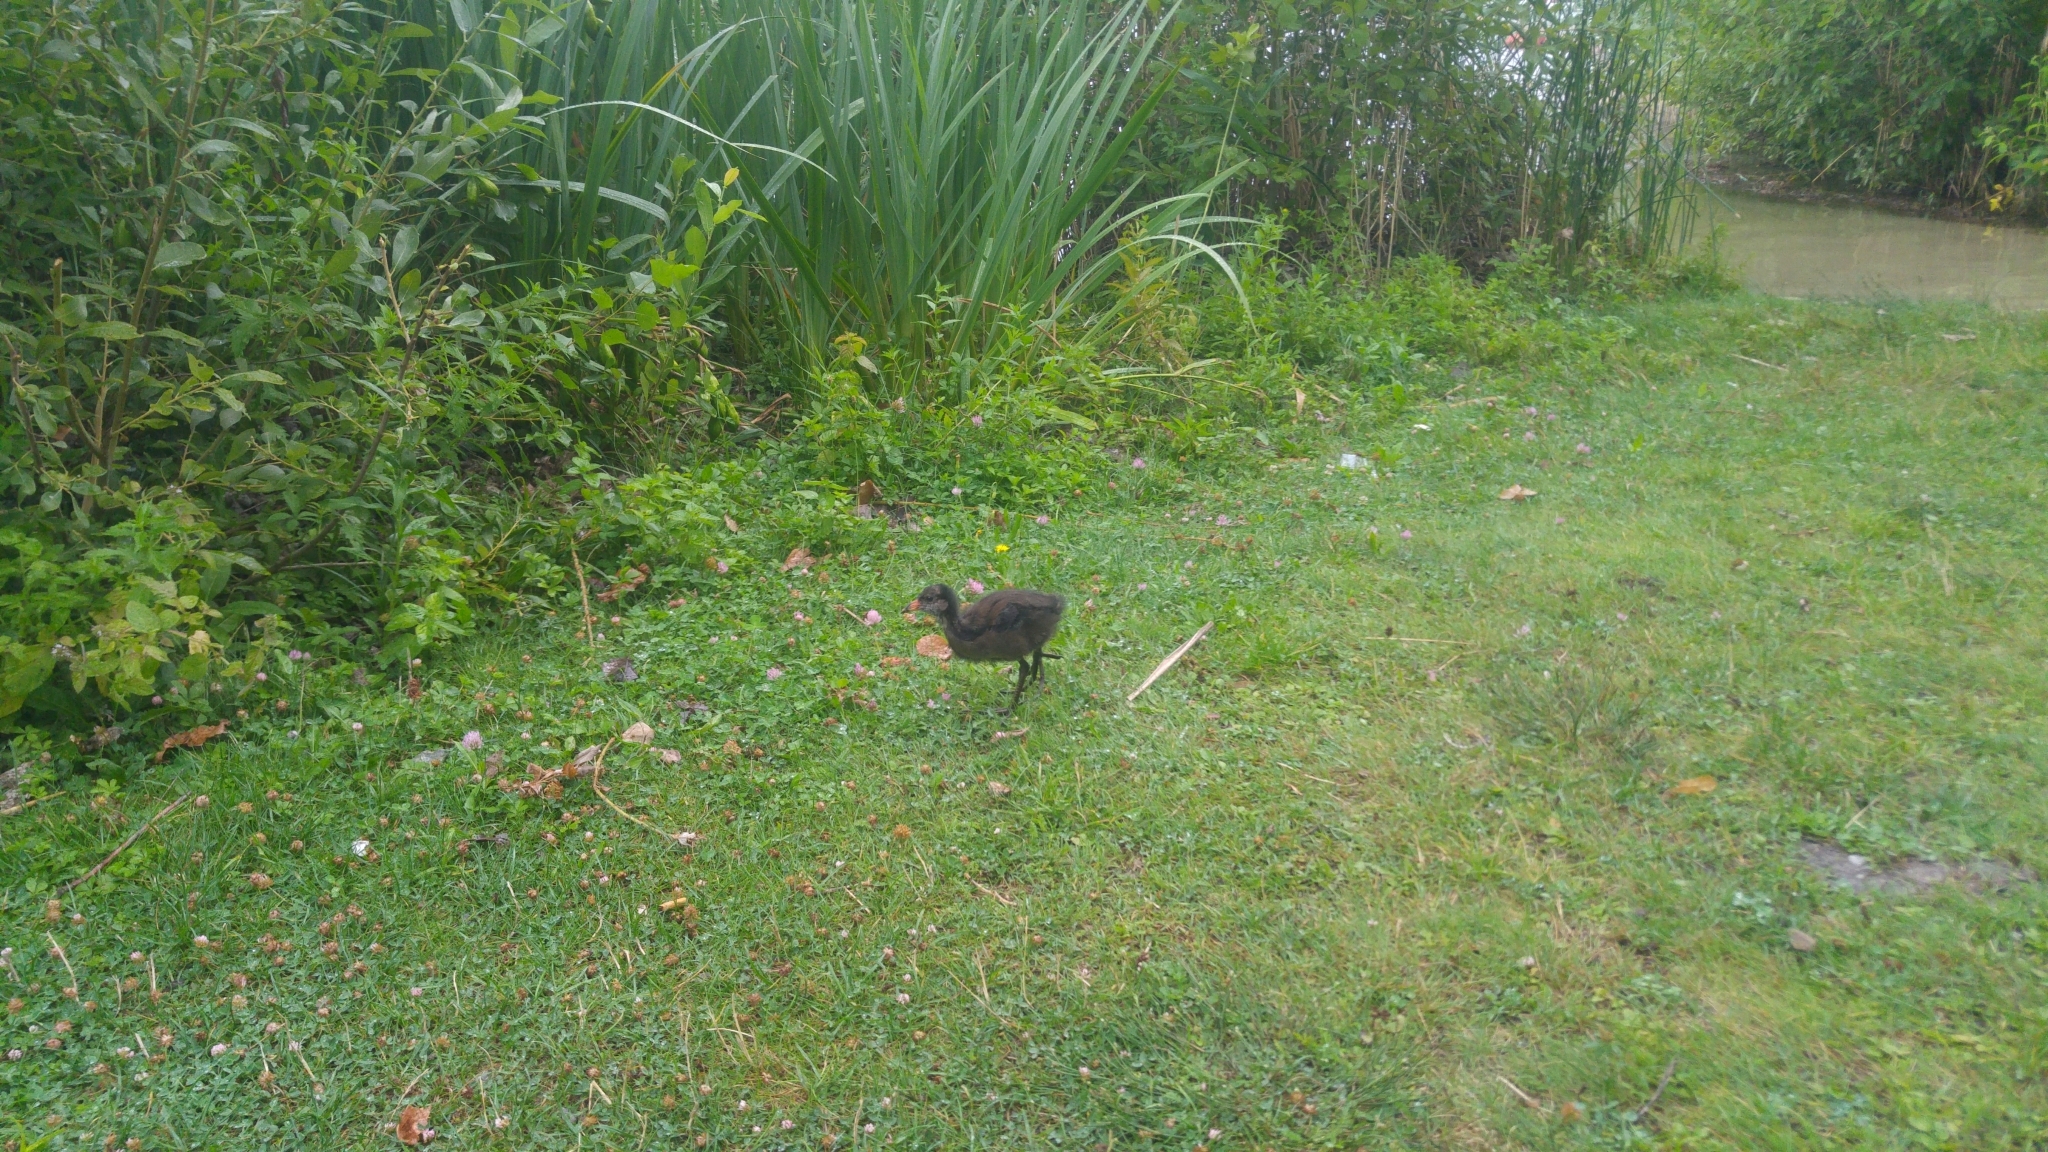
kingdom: Animalia
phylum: Chordata
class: Aves
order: Gruiformes
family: Rallidae
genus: Gallinula
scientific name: Gallinula chloropus
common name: Common moorhen
